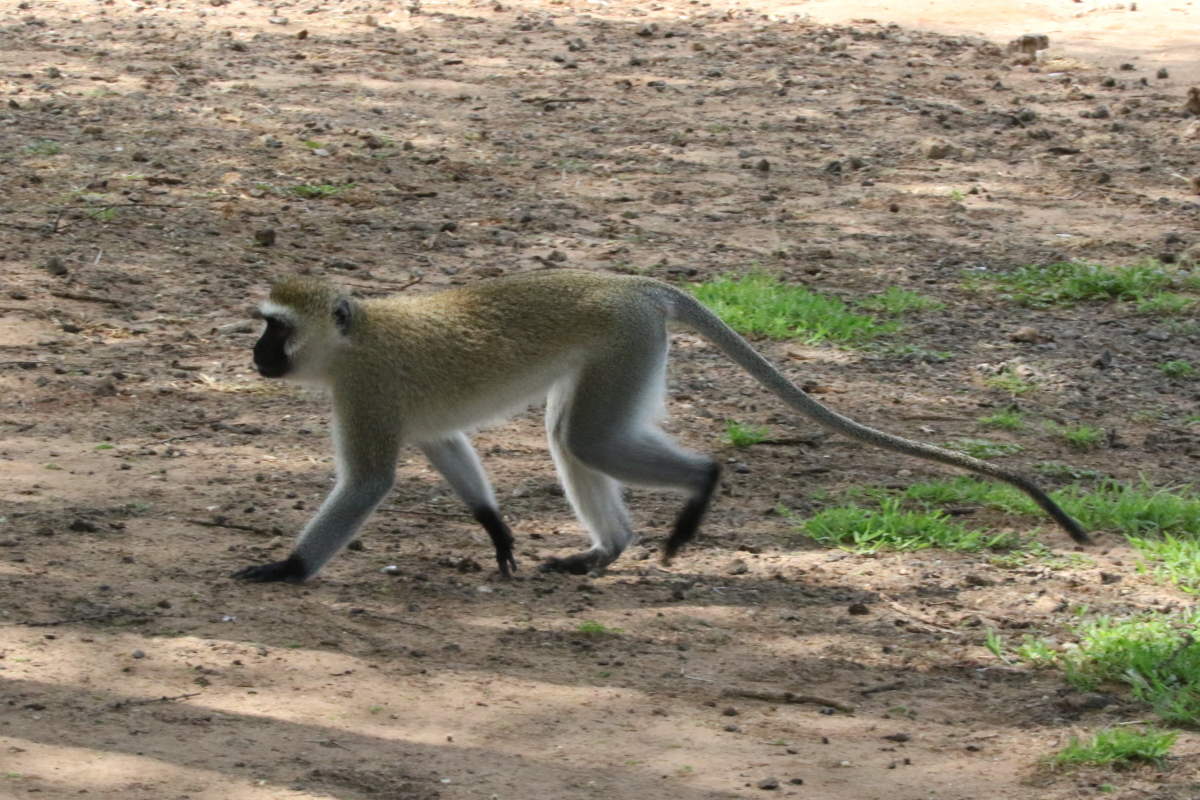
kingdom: Animalia
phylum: Chordata
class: Mammalia
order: Primates
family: Cercopithecidae
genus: Chlorocebus
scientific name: Chlorocebus pygerythrus
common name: Vervet monkey
